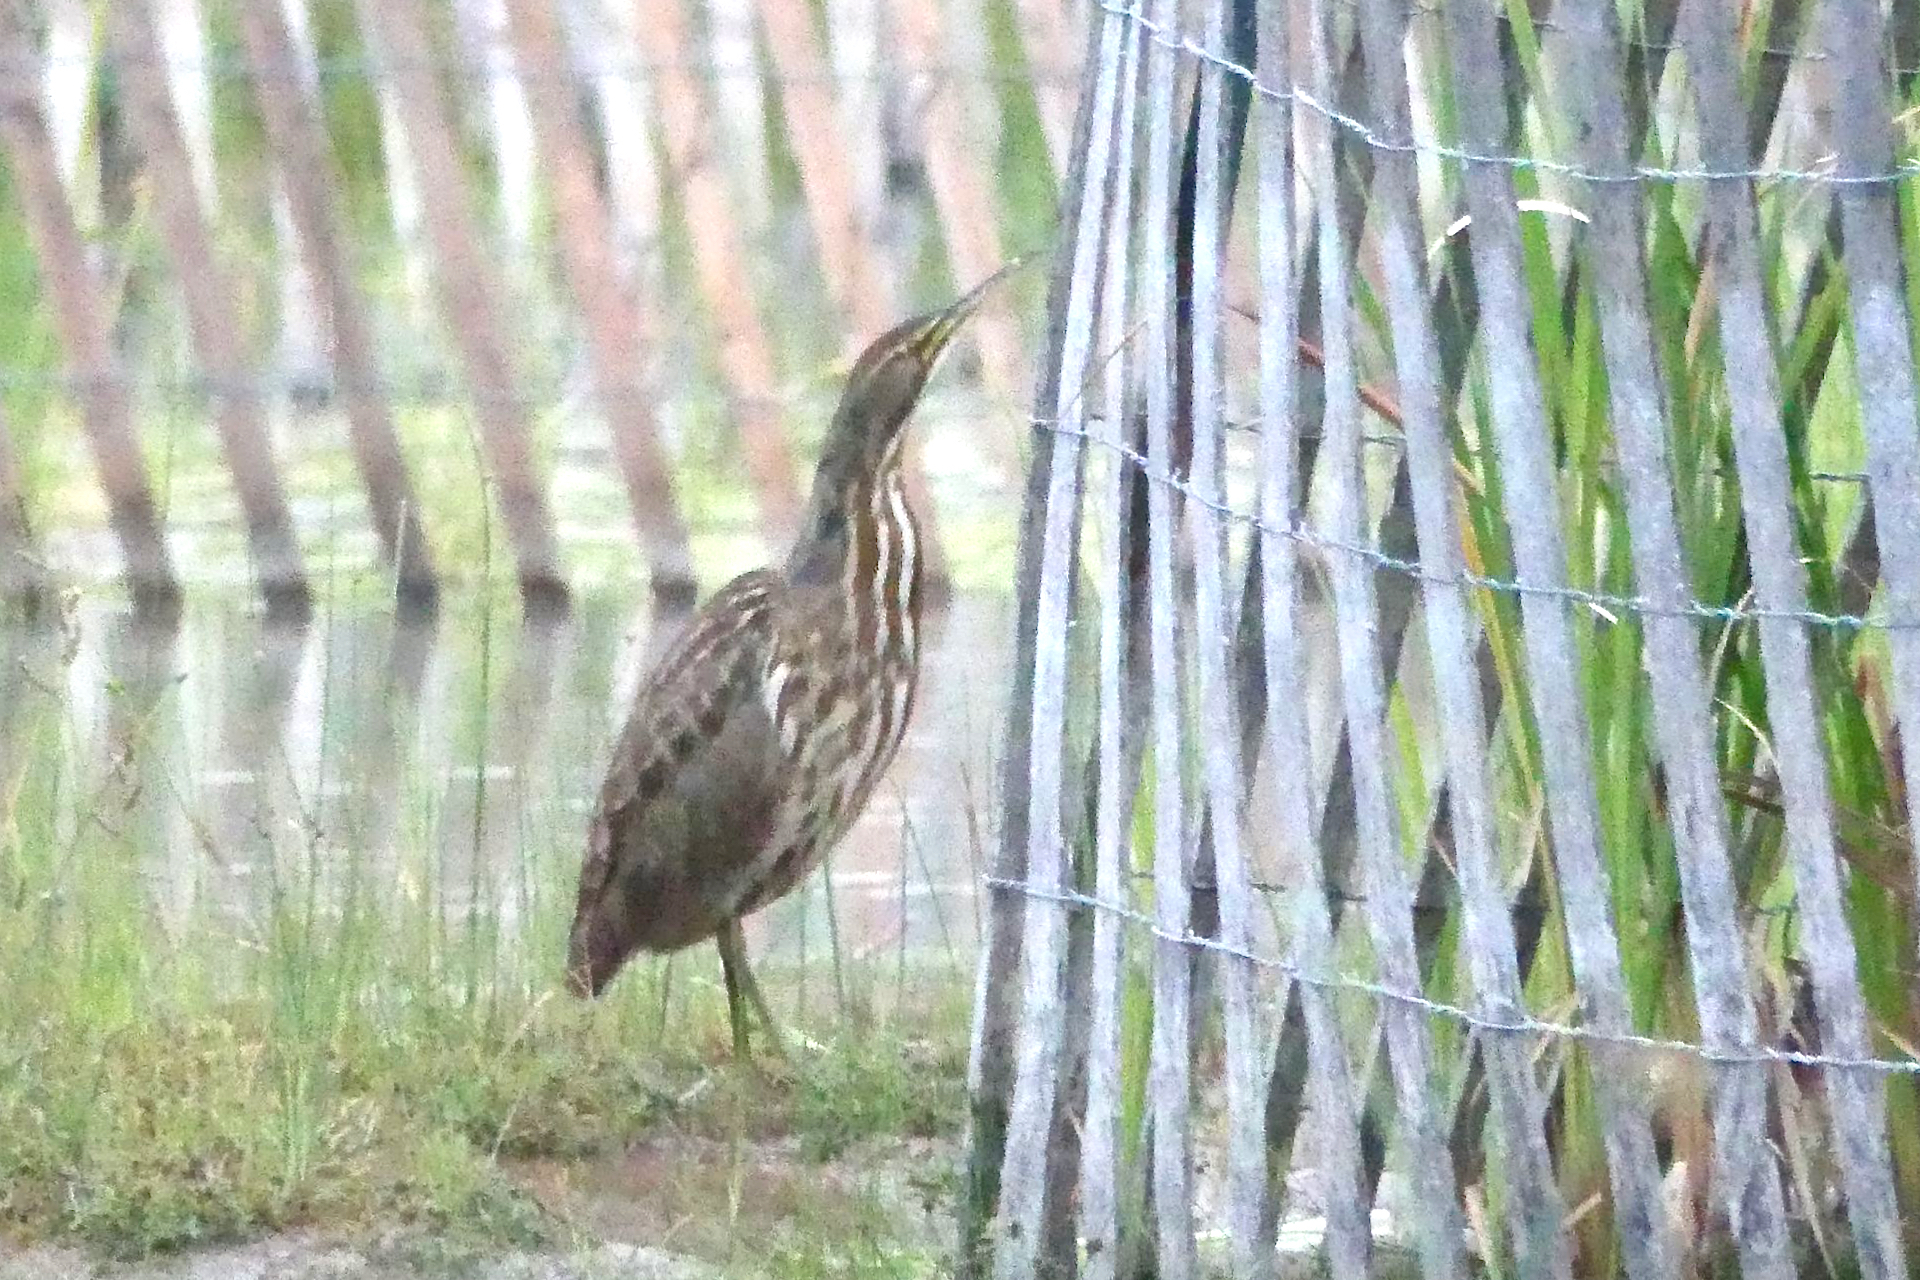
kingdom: Animalia
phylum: Chordata
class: Aves
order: Pelecaniformes
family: Ardeidae
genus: Botaurus
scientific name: Botaurus lentiginosus
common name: American bittern
